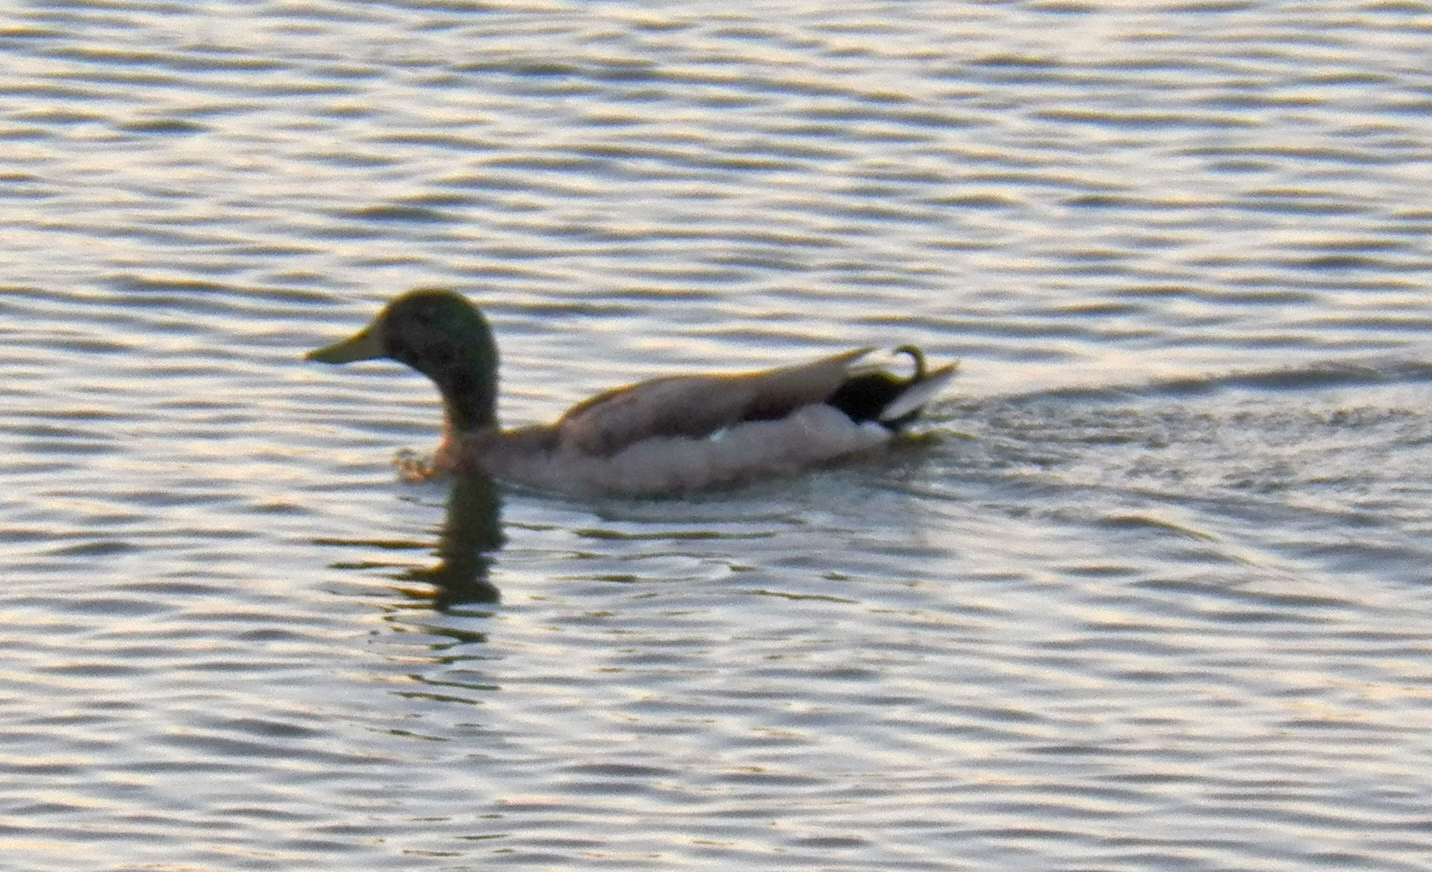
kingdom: Animalia
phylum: Chordata
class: Aves
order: Anseriformes
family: Anatidae
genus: Anas
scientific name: Anas platyrhynchos
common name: Mallard
